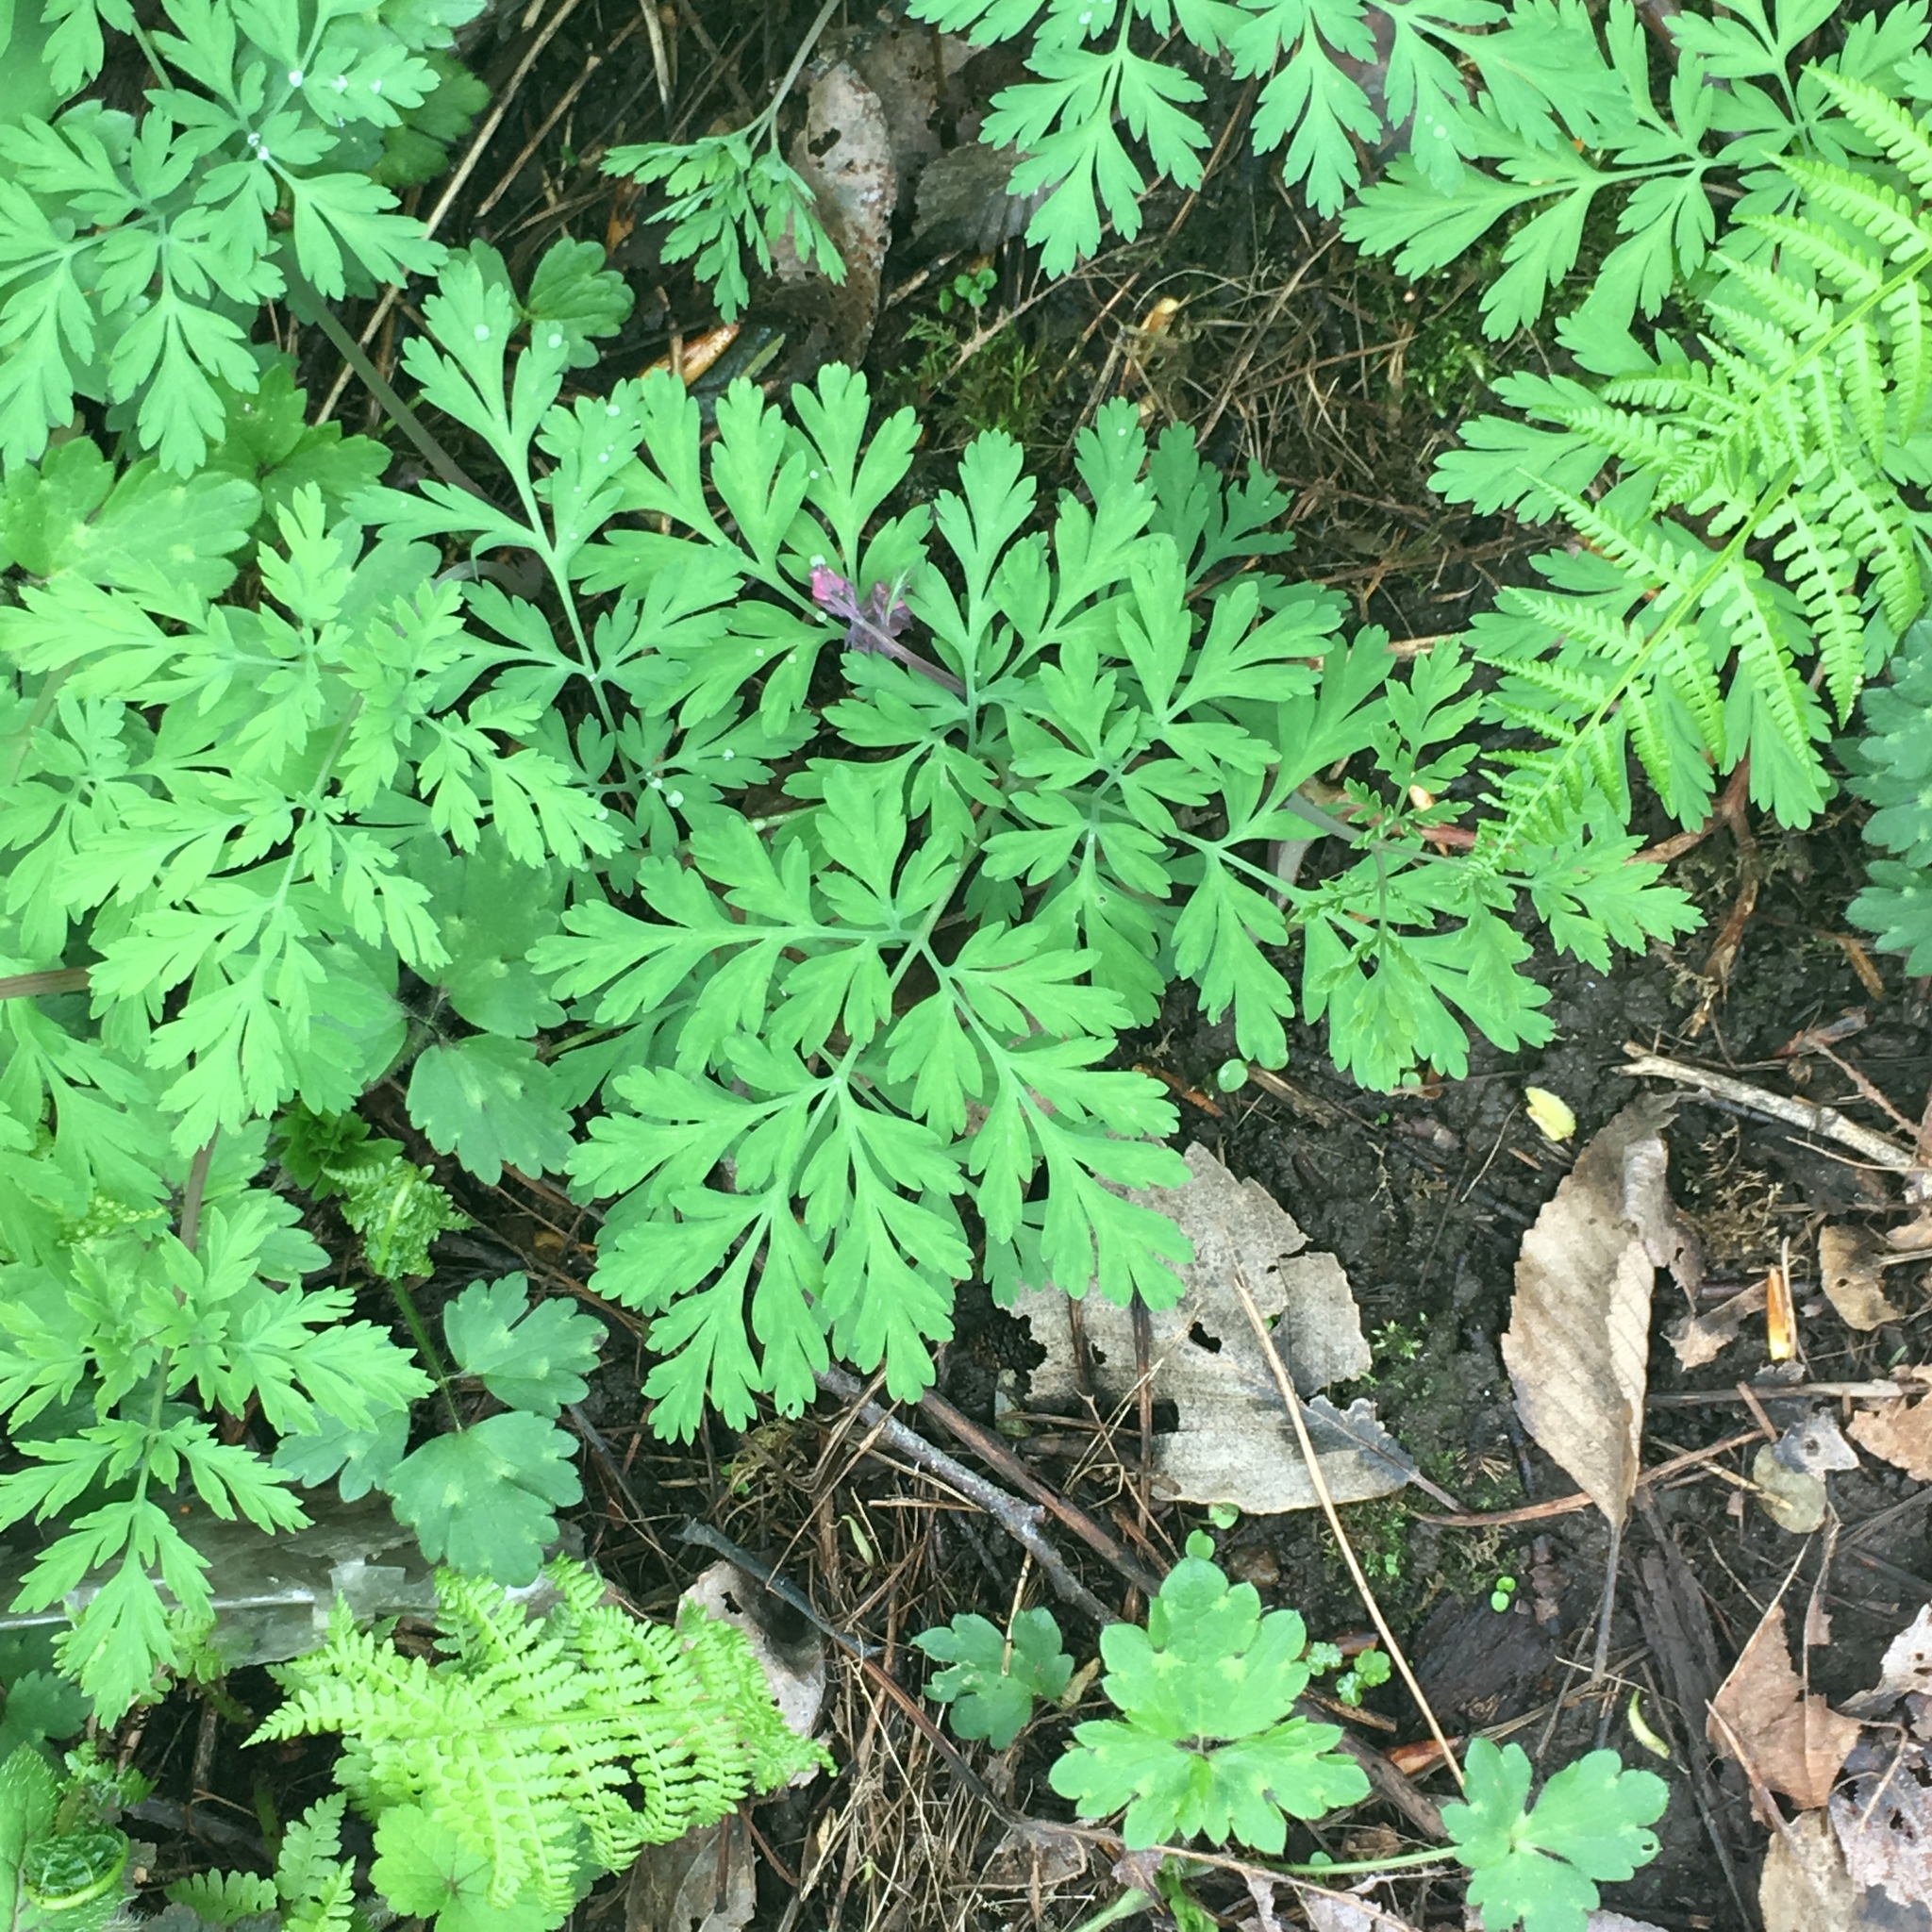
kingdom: Plantae
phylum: Tracheophyta
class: Magnoliopsida
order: Ranunculales
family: Papaveraceae
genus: Dicentra
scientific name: Dicentra formosa
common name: Bleeding-heart
